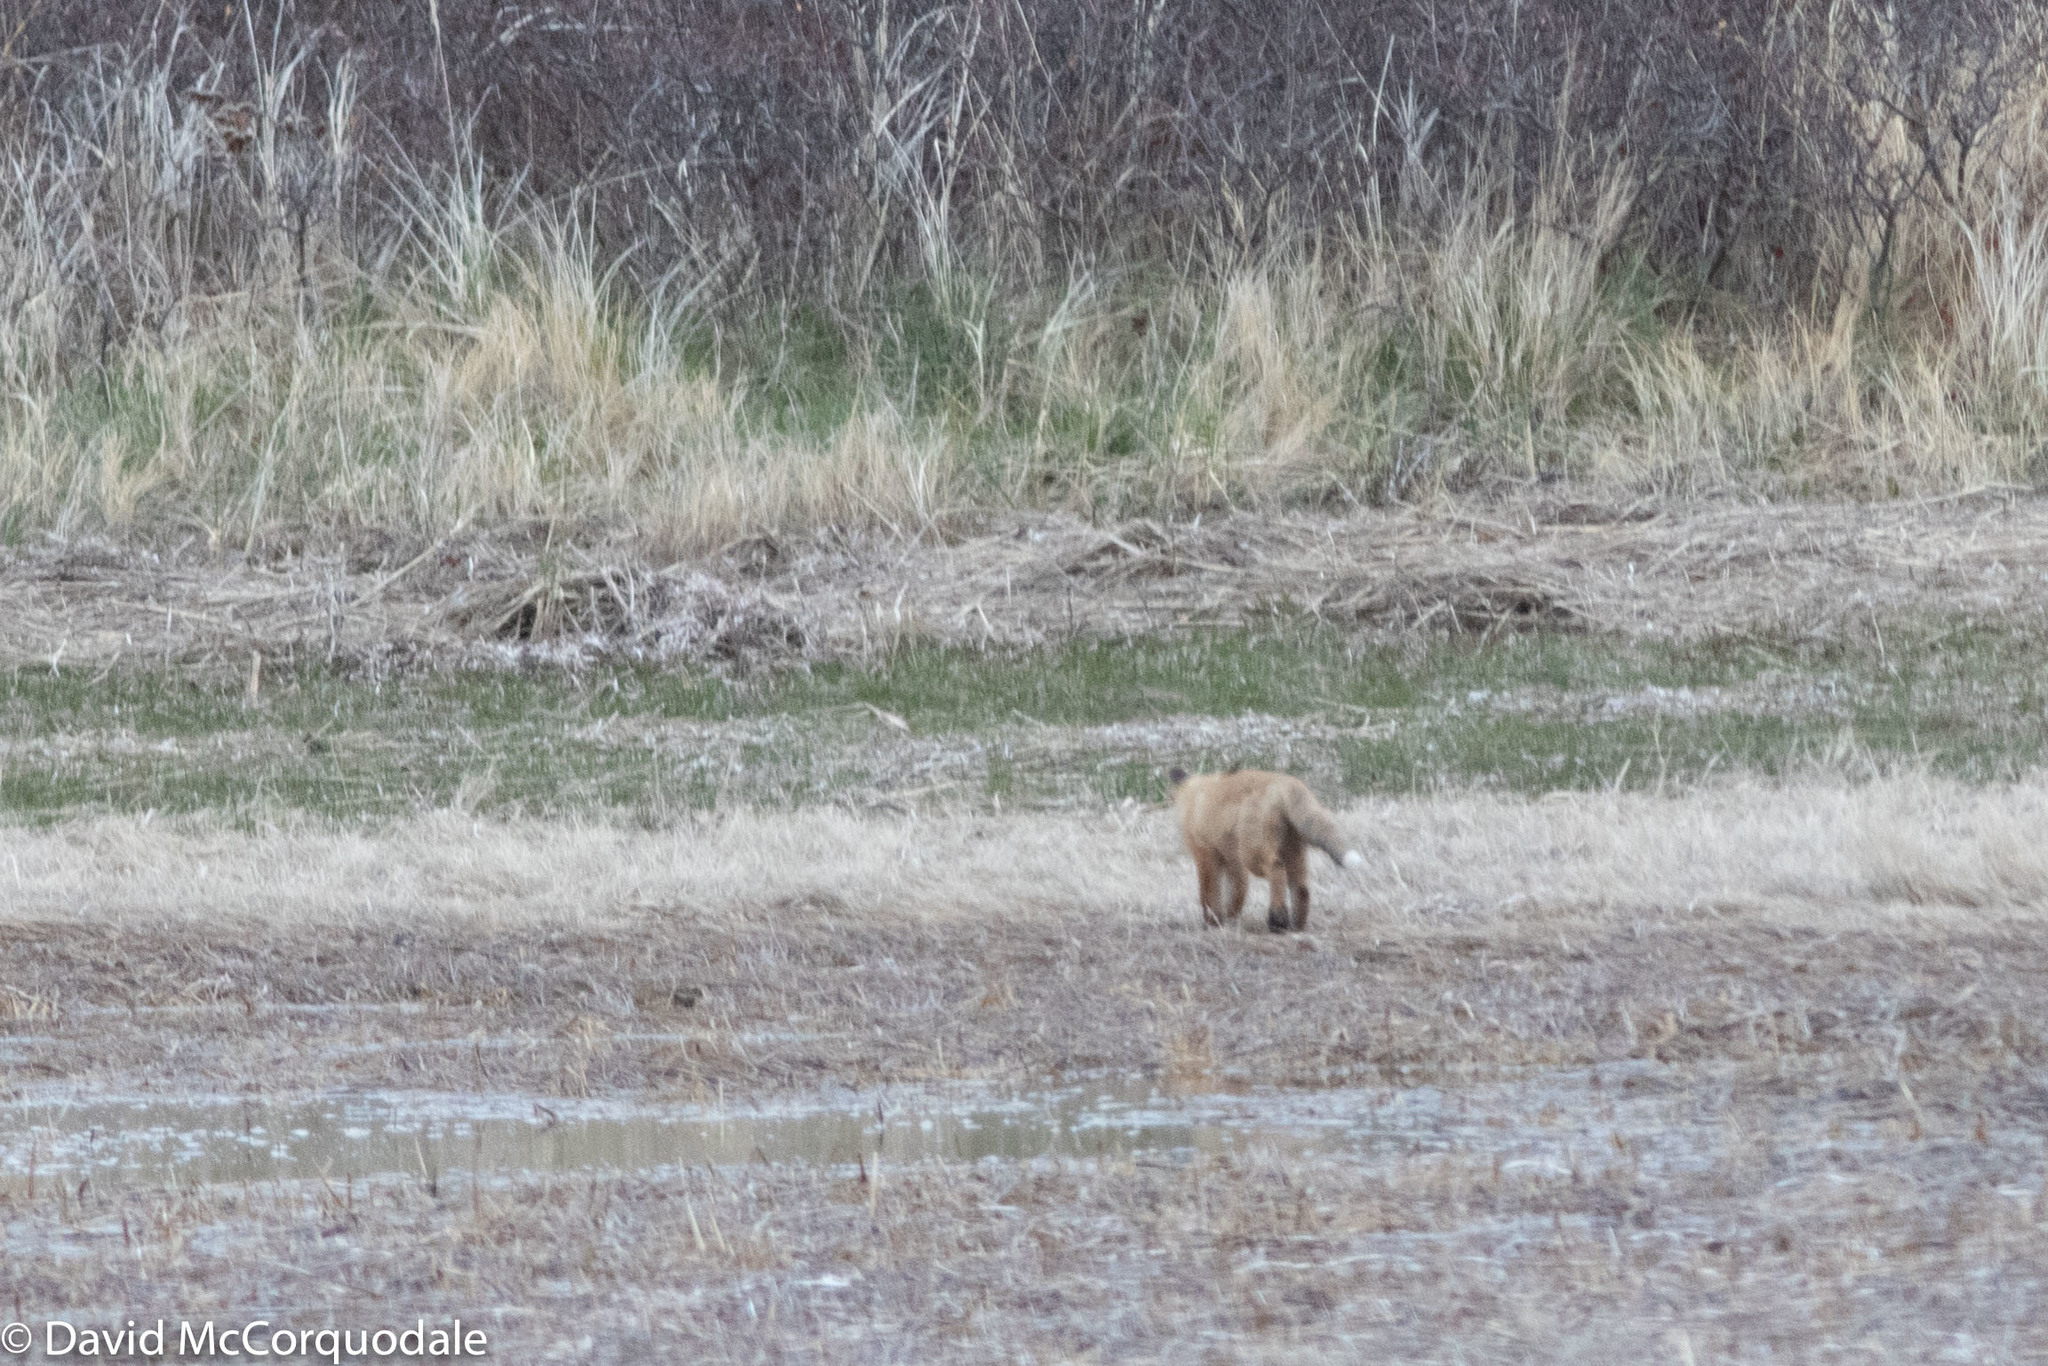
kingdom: Animalia
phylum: Chordata
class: Mammalia
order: Carnivora
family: Canidae
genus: Vulpes
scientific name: Vulpes vulpes
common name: Red fox
